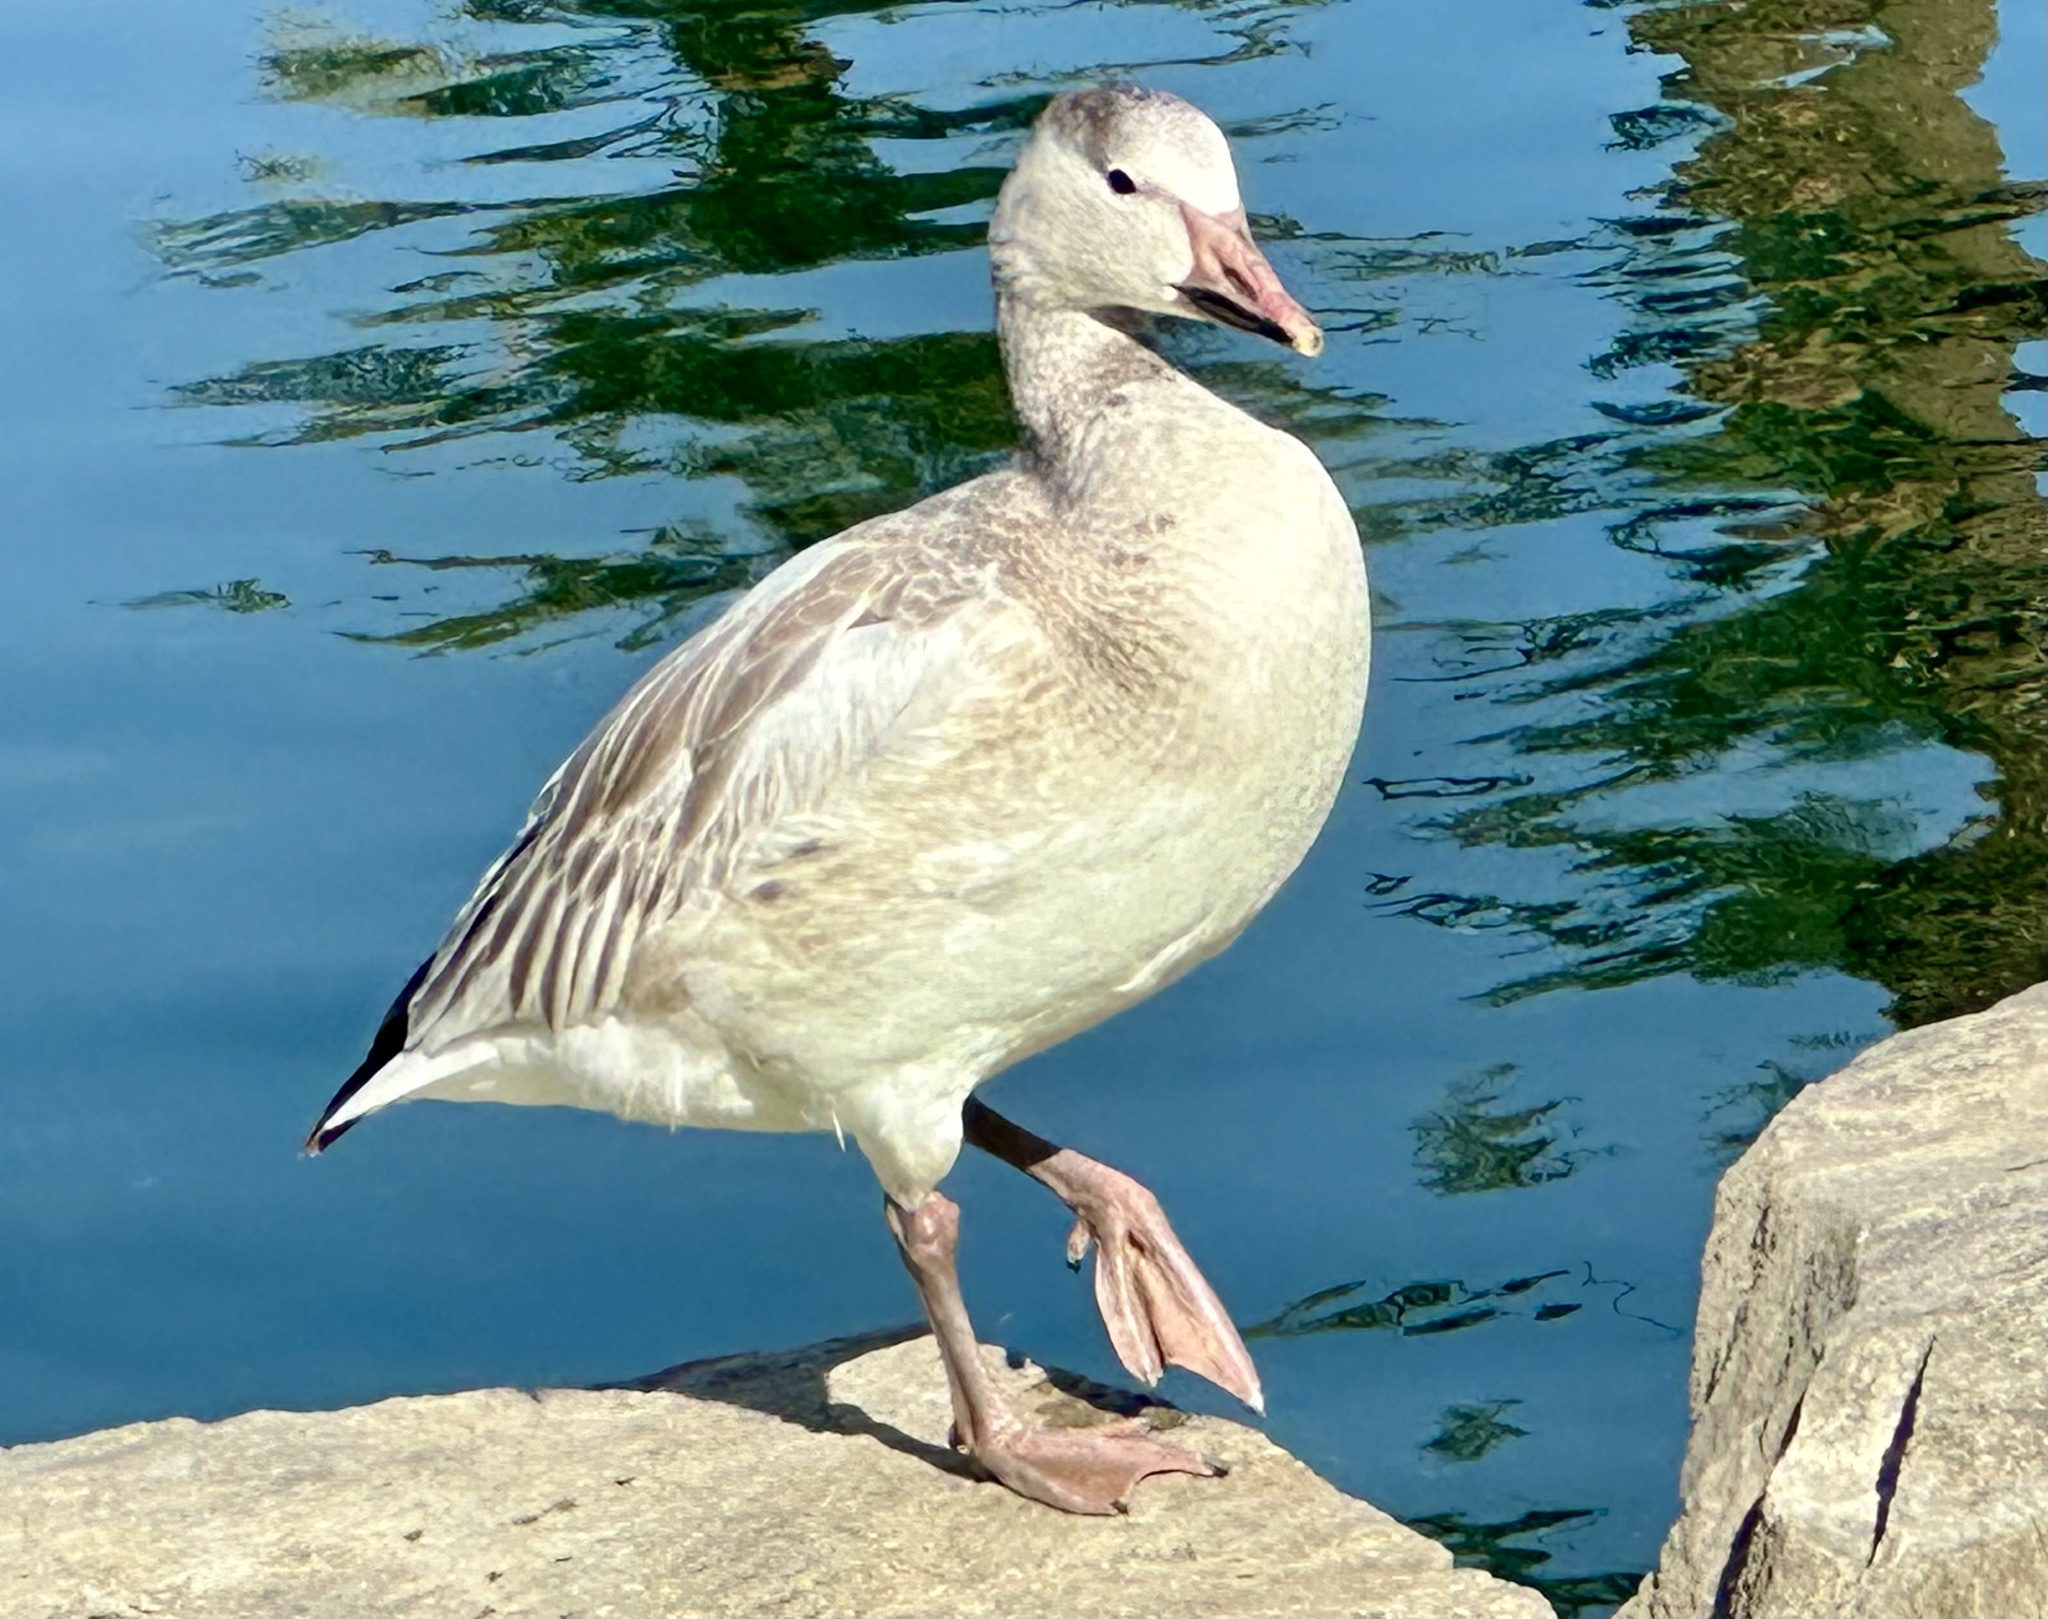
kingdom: Animalia
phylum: Chordata
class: Aves
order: Anseriformes
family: Anatidae
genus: Anser
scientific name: Anser caerulescens
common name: Snow goose
